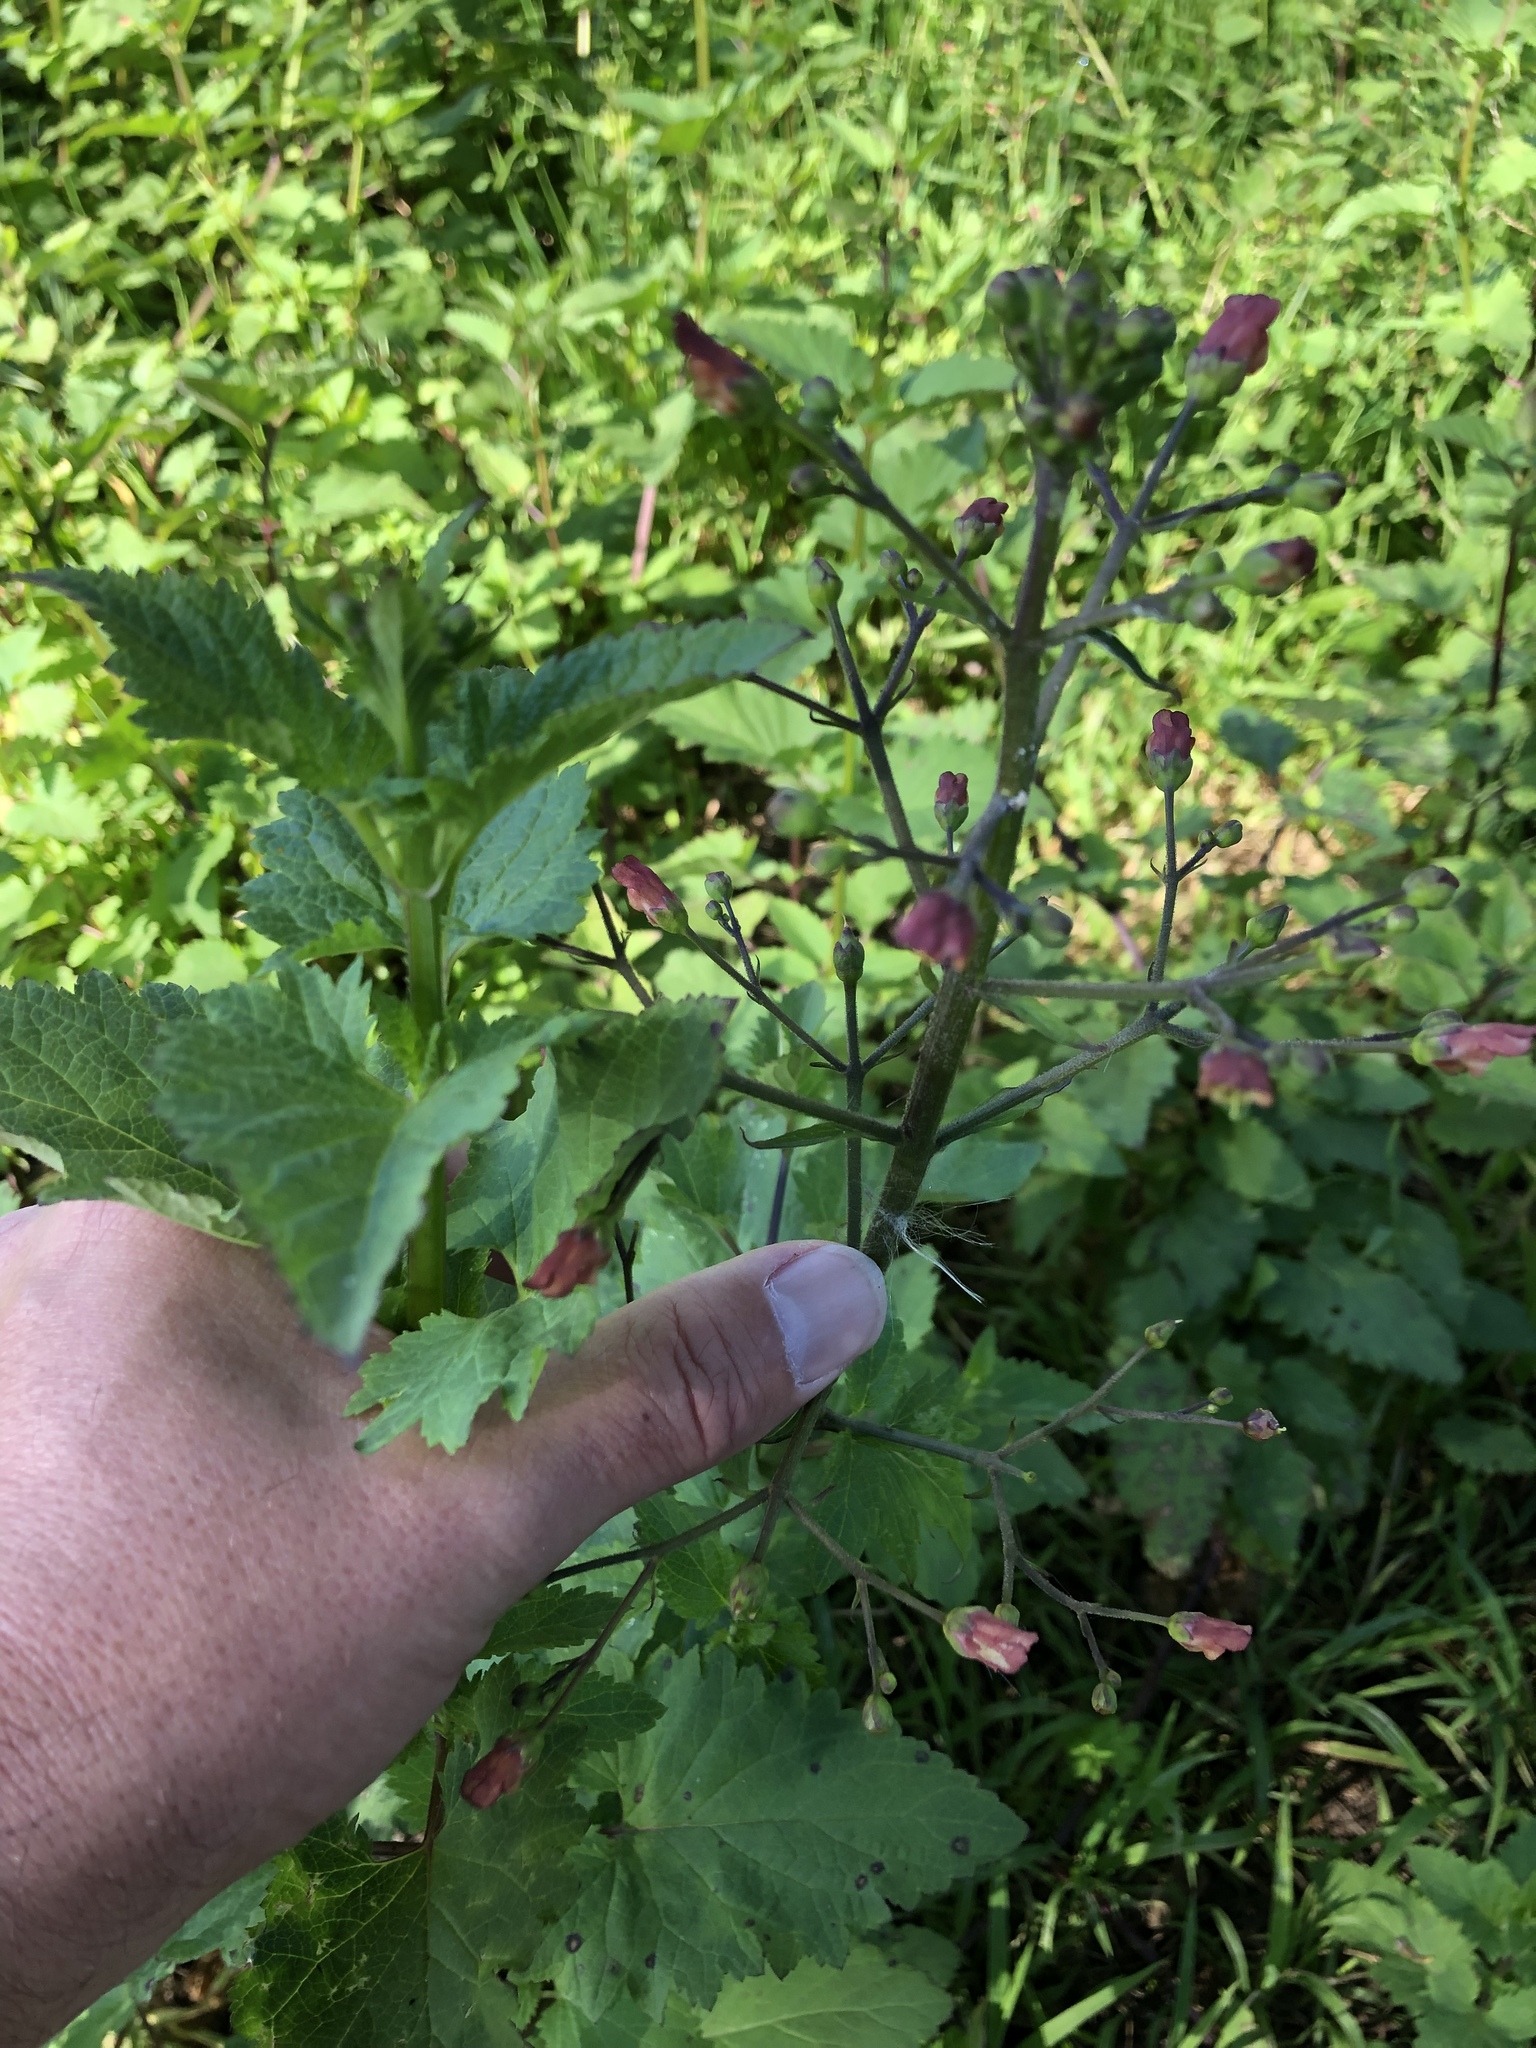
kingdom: Plantae
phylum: Tracheophyta
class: Magnoliopsida
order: Lamiales
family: Scrophulariaceae
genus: Scrophularia
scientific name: Scrophularia californica
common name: California figwort
